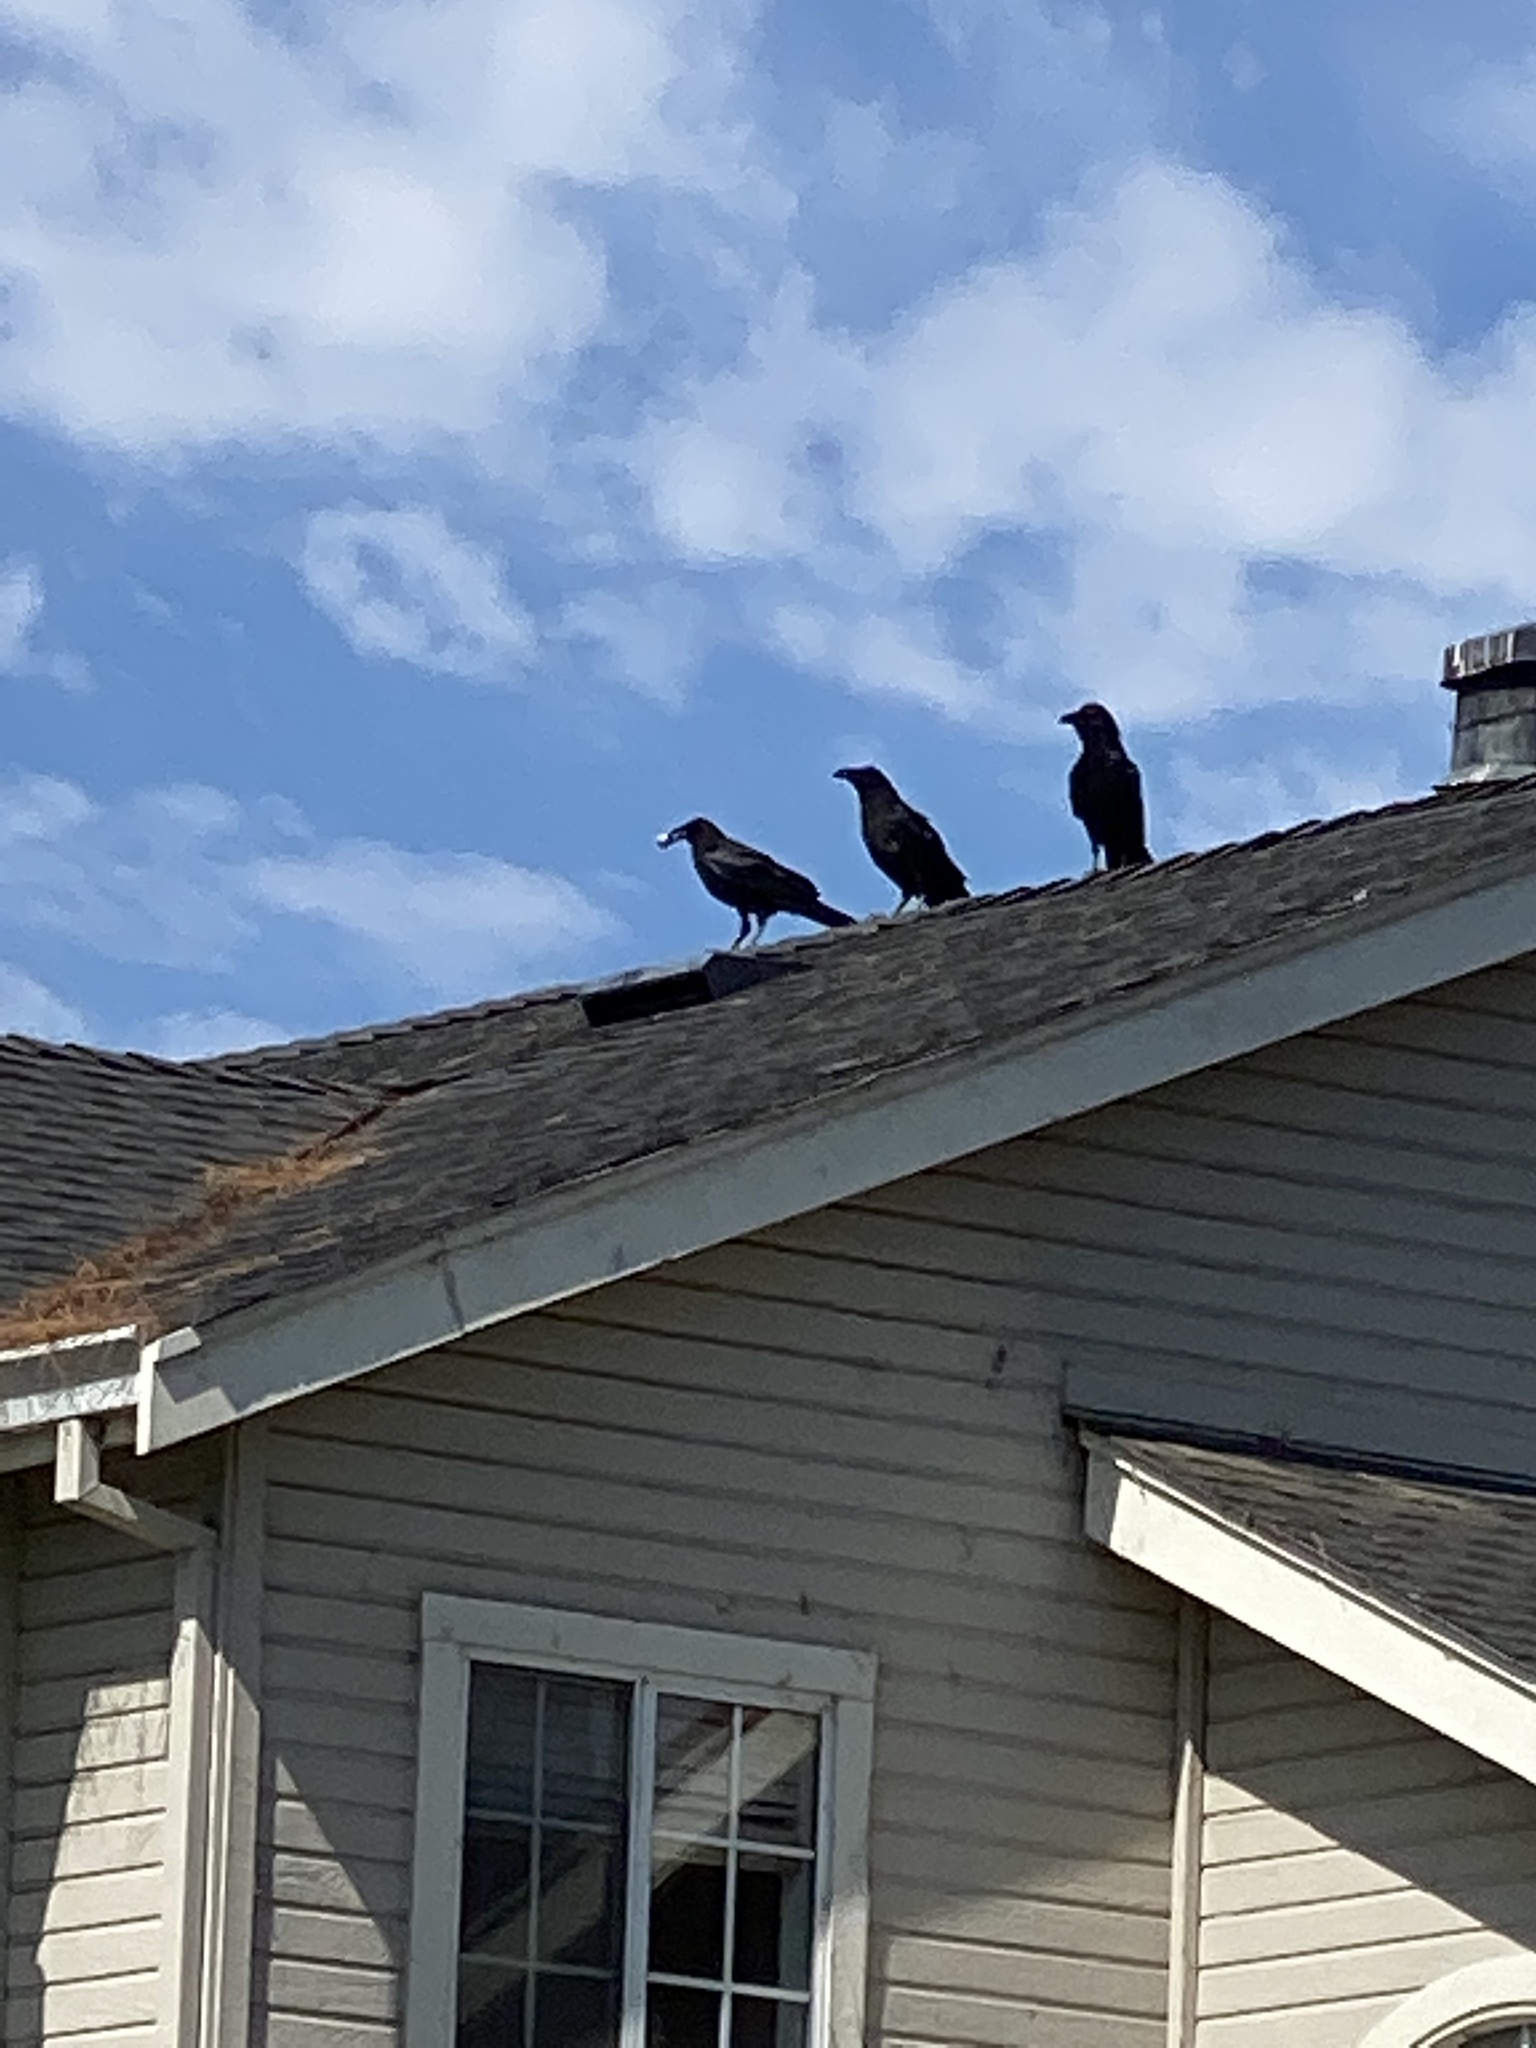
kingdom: Animalia
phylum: Chordata
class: Aves
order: Passeriformes
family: Corvidae
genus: Corvus
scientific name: Corvus brachyrhynchos
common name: American crow
